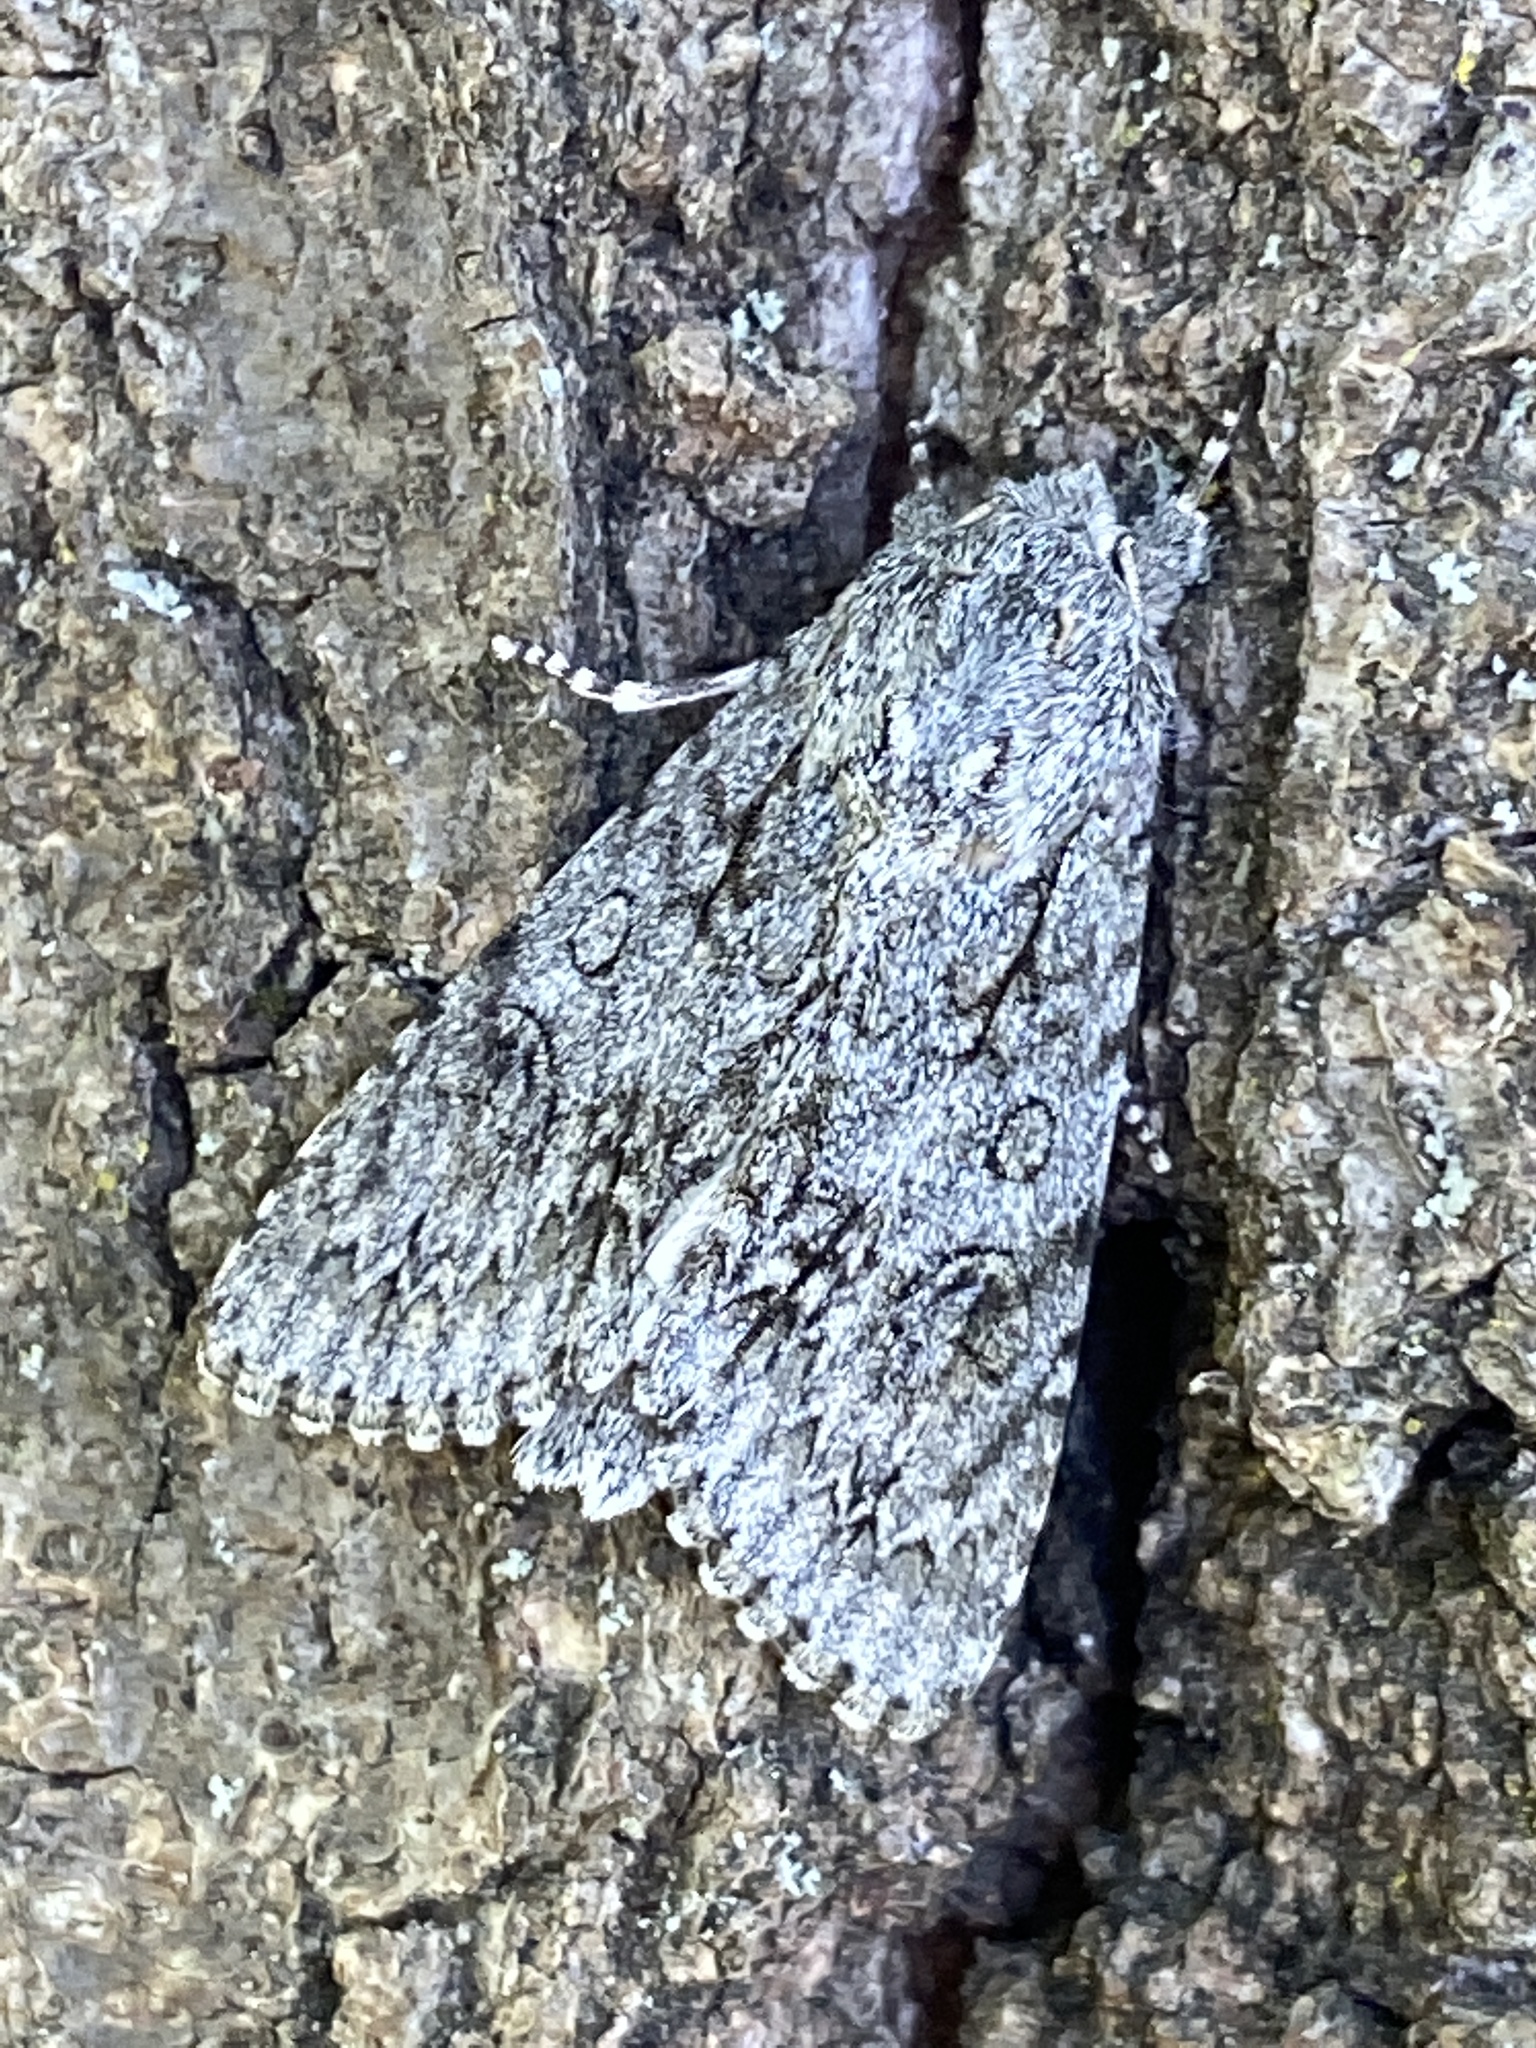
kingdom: Animalia
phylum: Arthropoda
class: Insecta
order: Lepidoptera
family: Noctuidae
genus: Acronicta
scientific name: Acronicta aceris
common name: Sycamore
